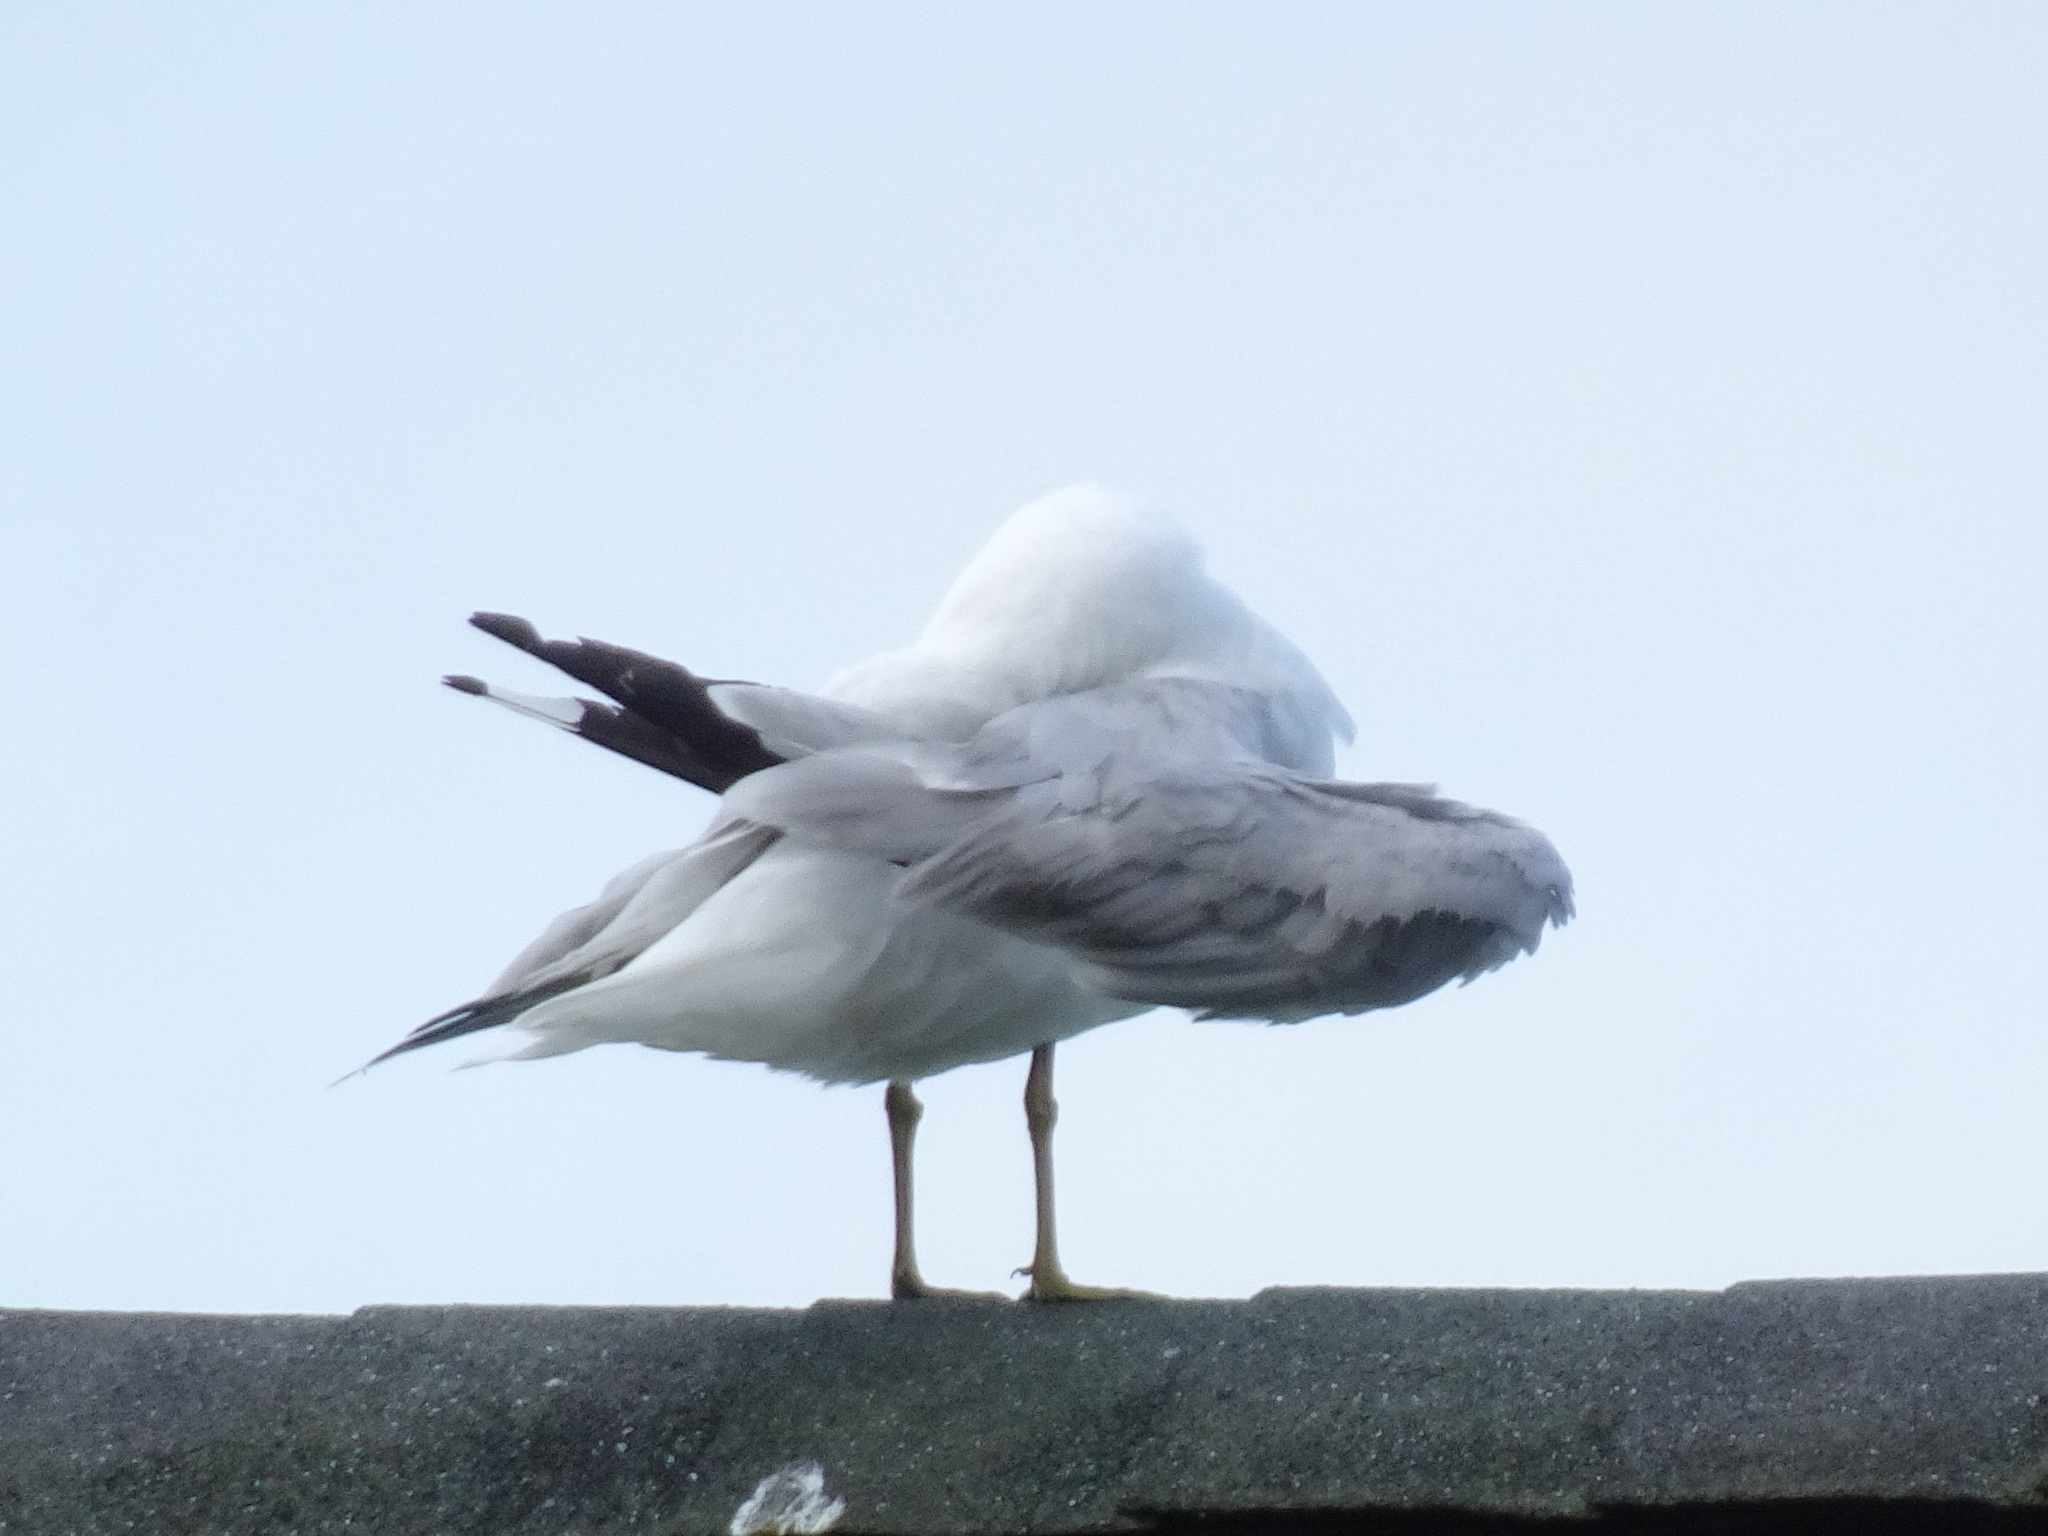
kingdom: Animalia
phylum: Chordata
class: Aves
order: Charadriiformes
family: Laridae
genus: Larus
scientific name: Larus delawarensis
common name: Ring-billed gull
